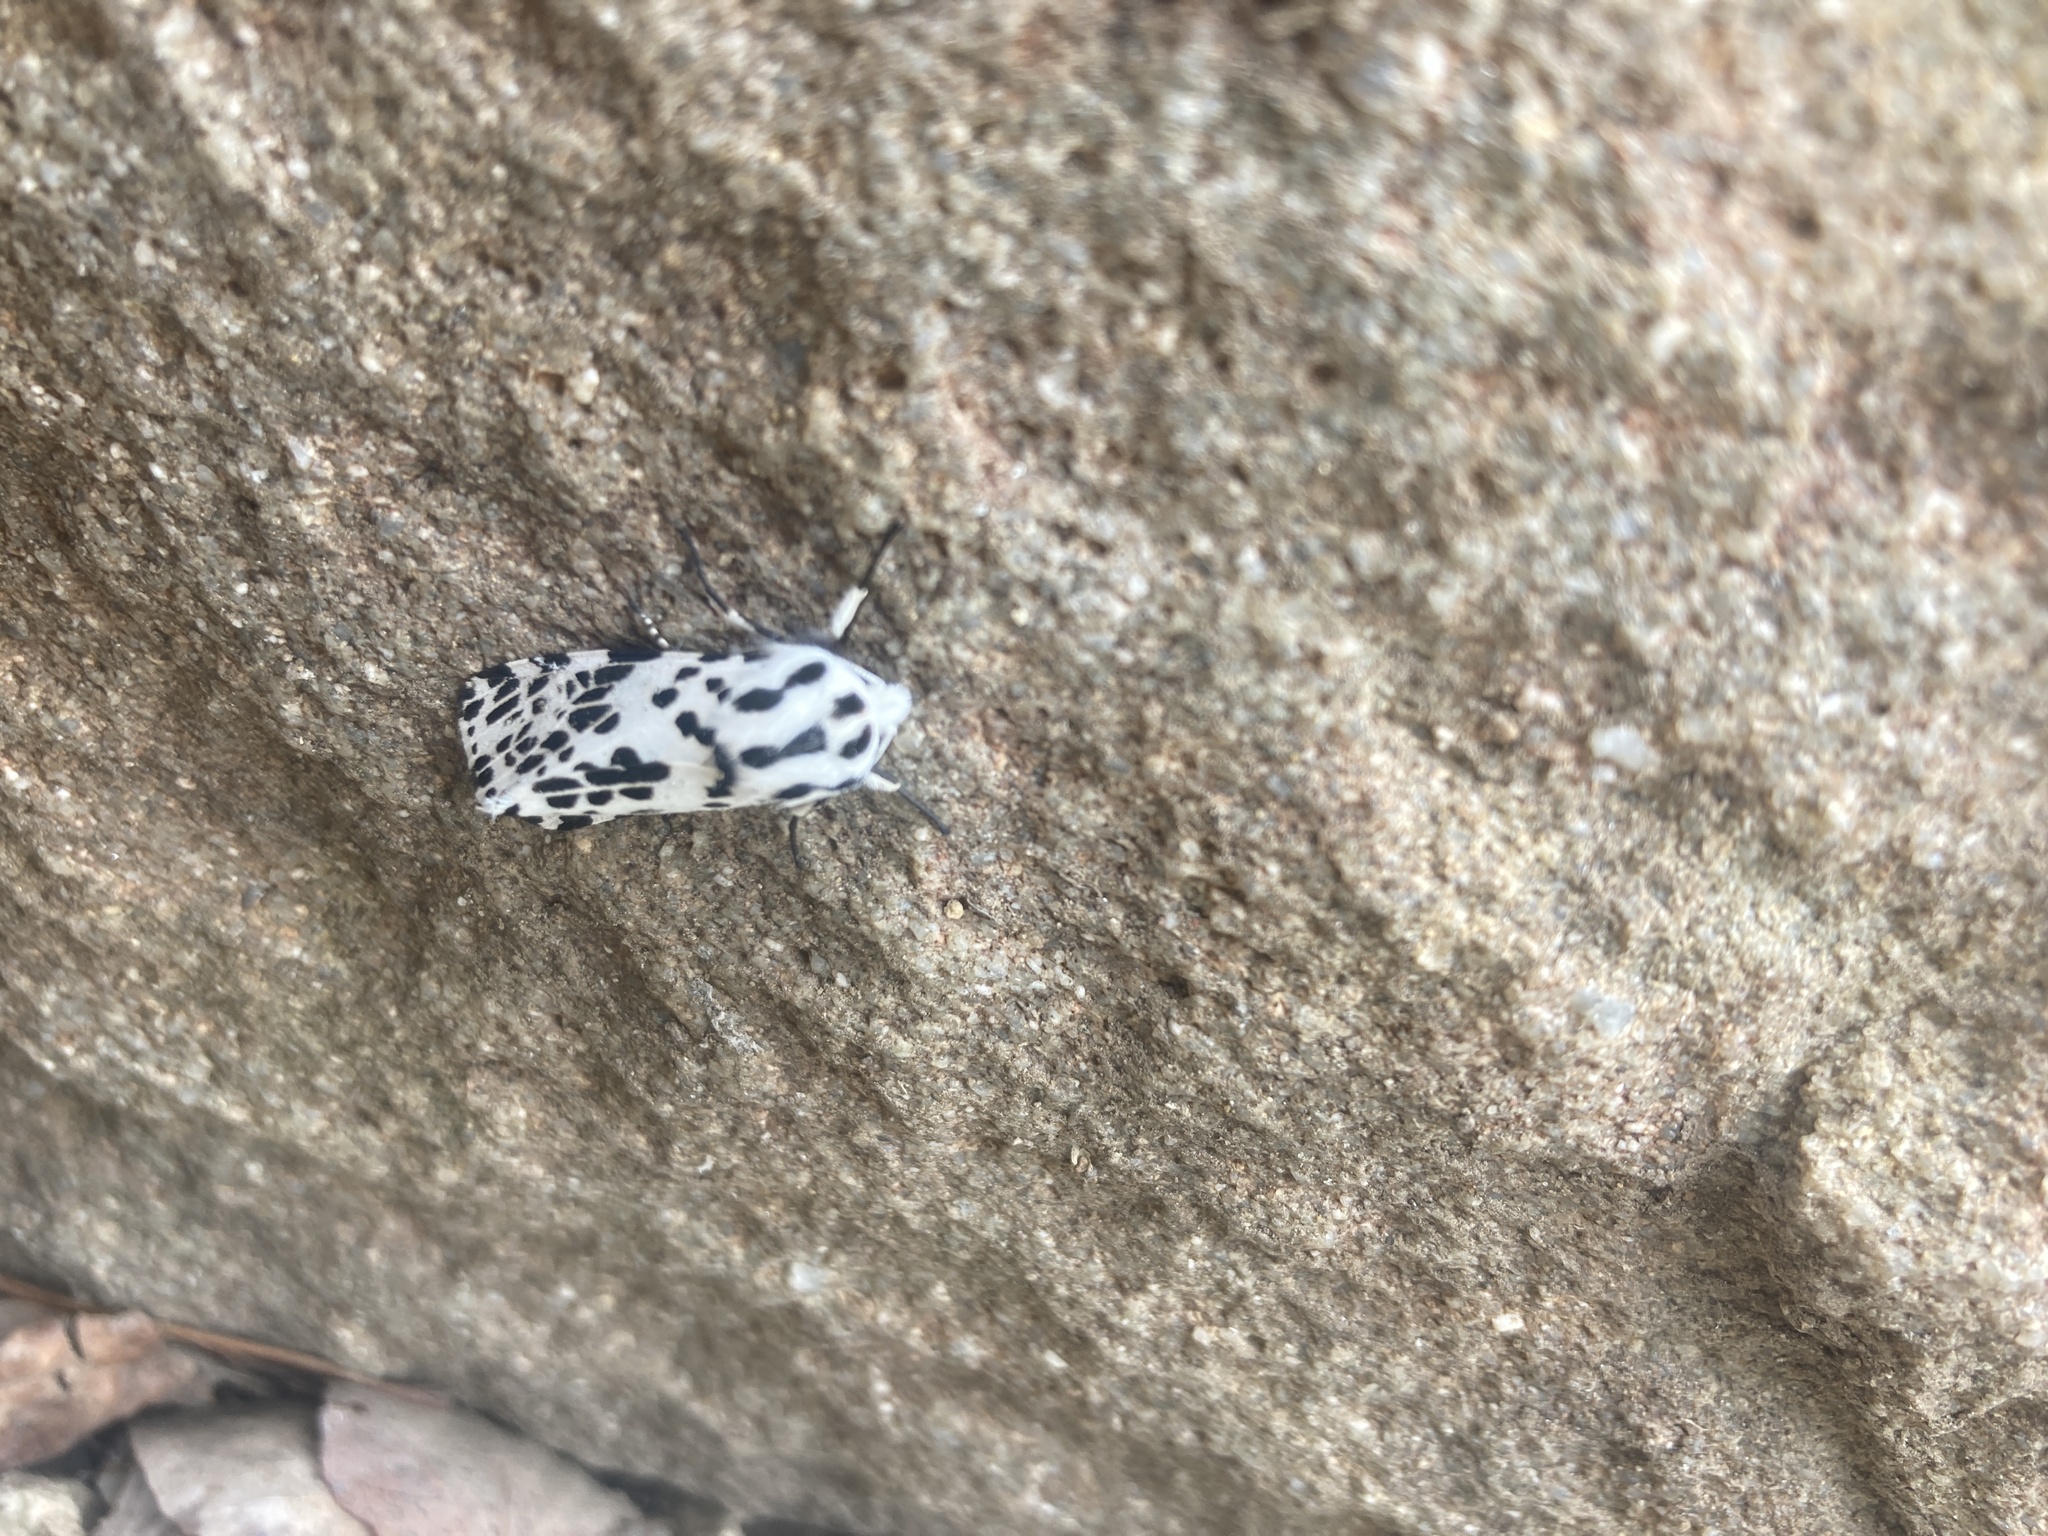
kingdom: Animalia
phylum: Arthropoda
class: Insecta
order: Lepidoptera
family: Erebidae
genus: Hypercompe
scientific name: Hypercompe permaculata
